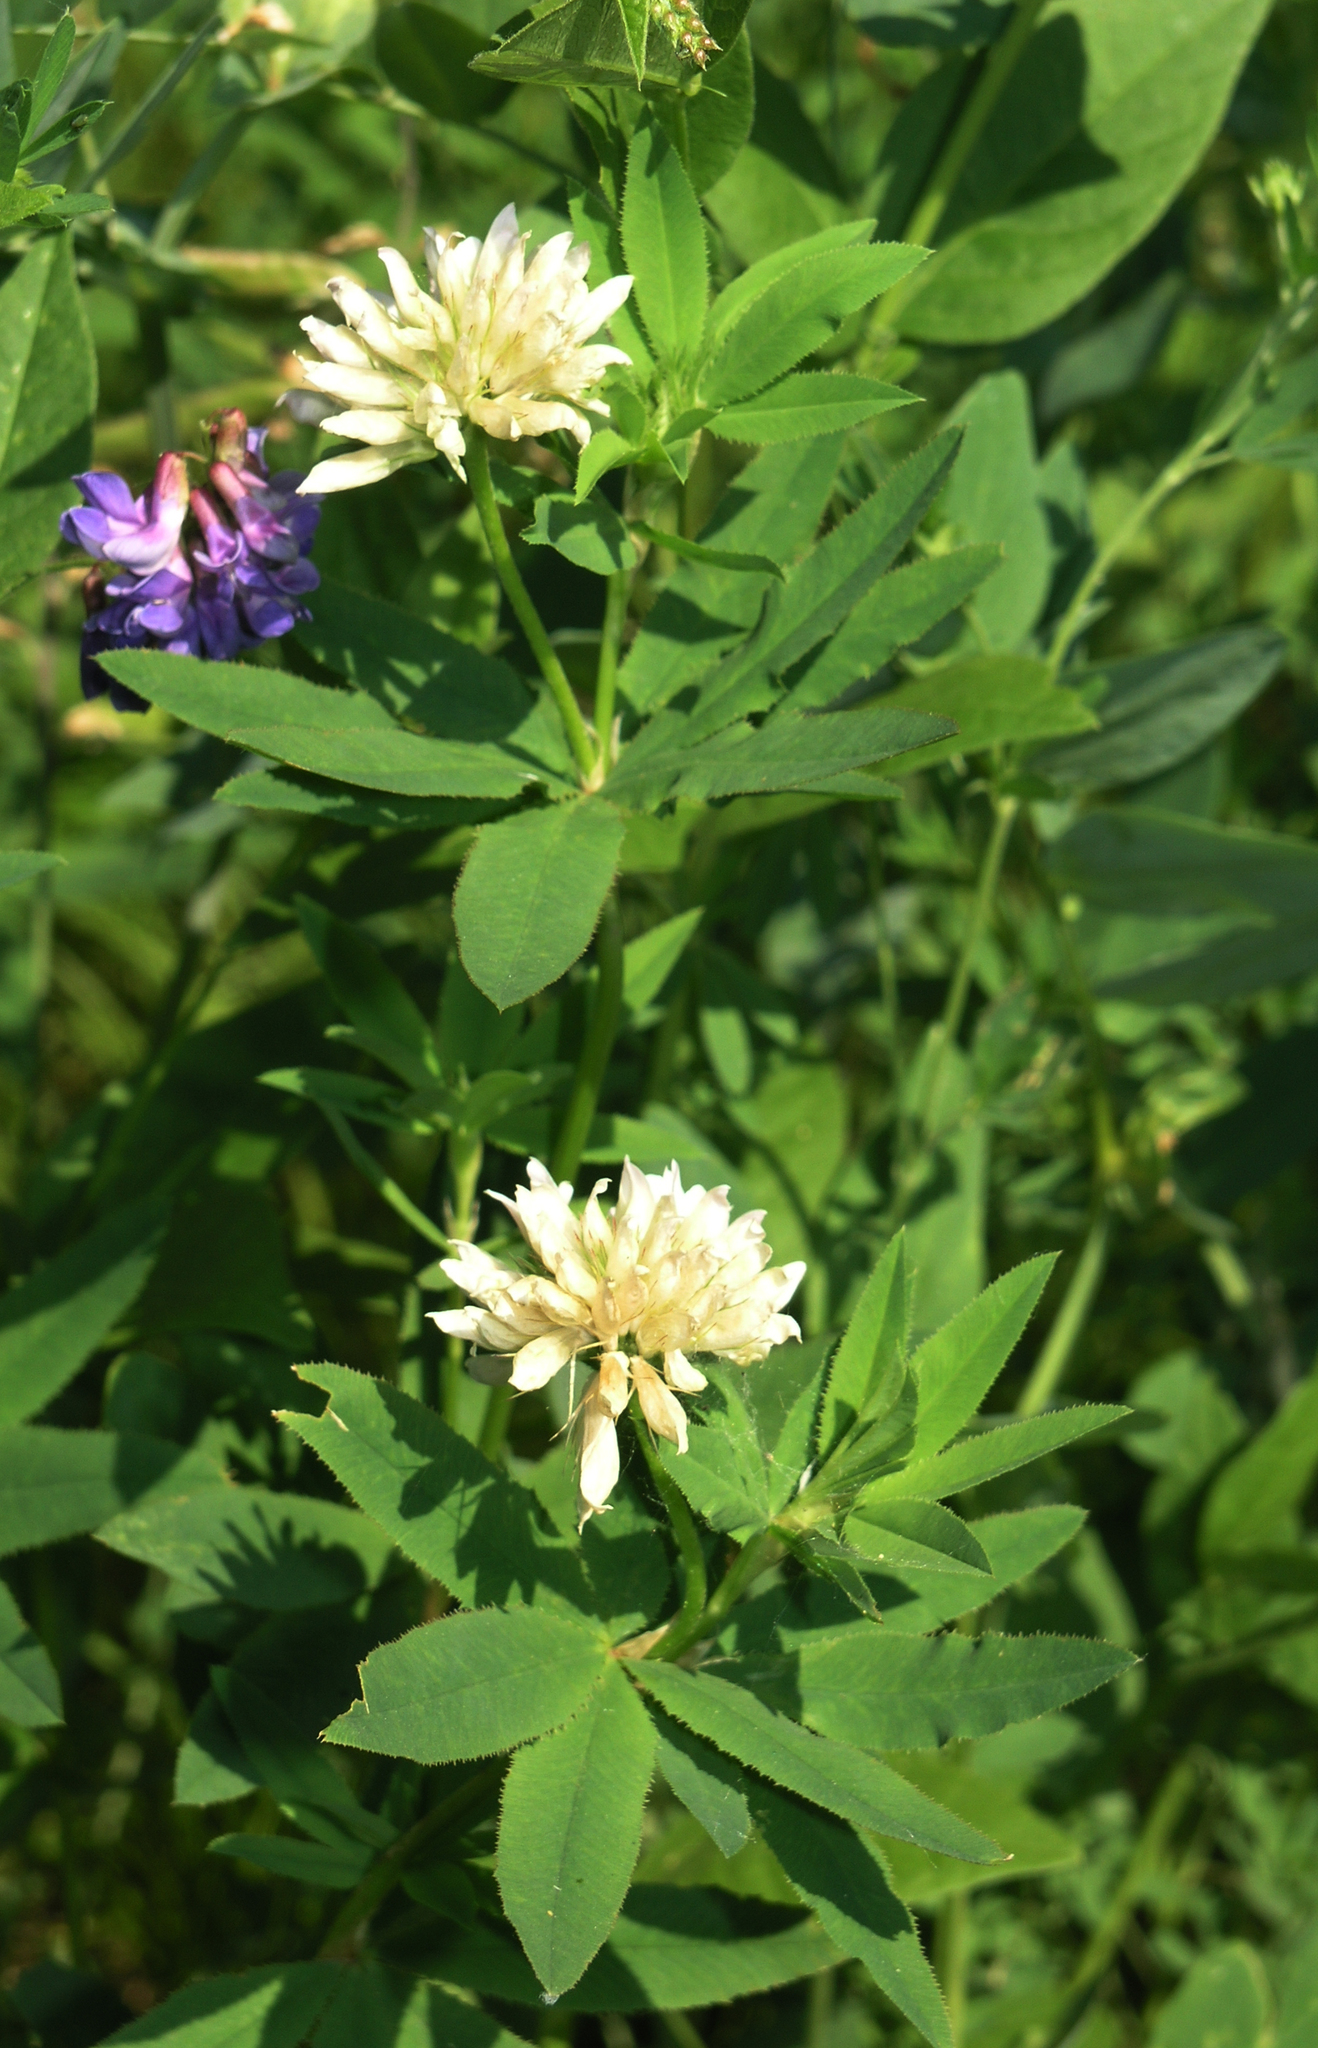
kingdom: Plantae
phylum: Tracheophyta
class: Magnoliopsida
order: Fabales
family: Fabaceae
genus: Trifolium
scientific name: Trifolium lupinaster
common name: Lupine clover
